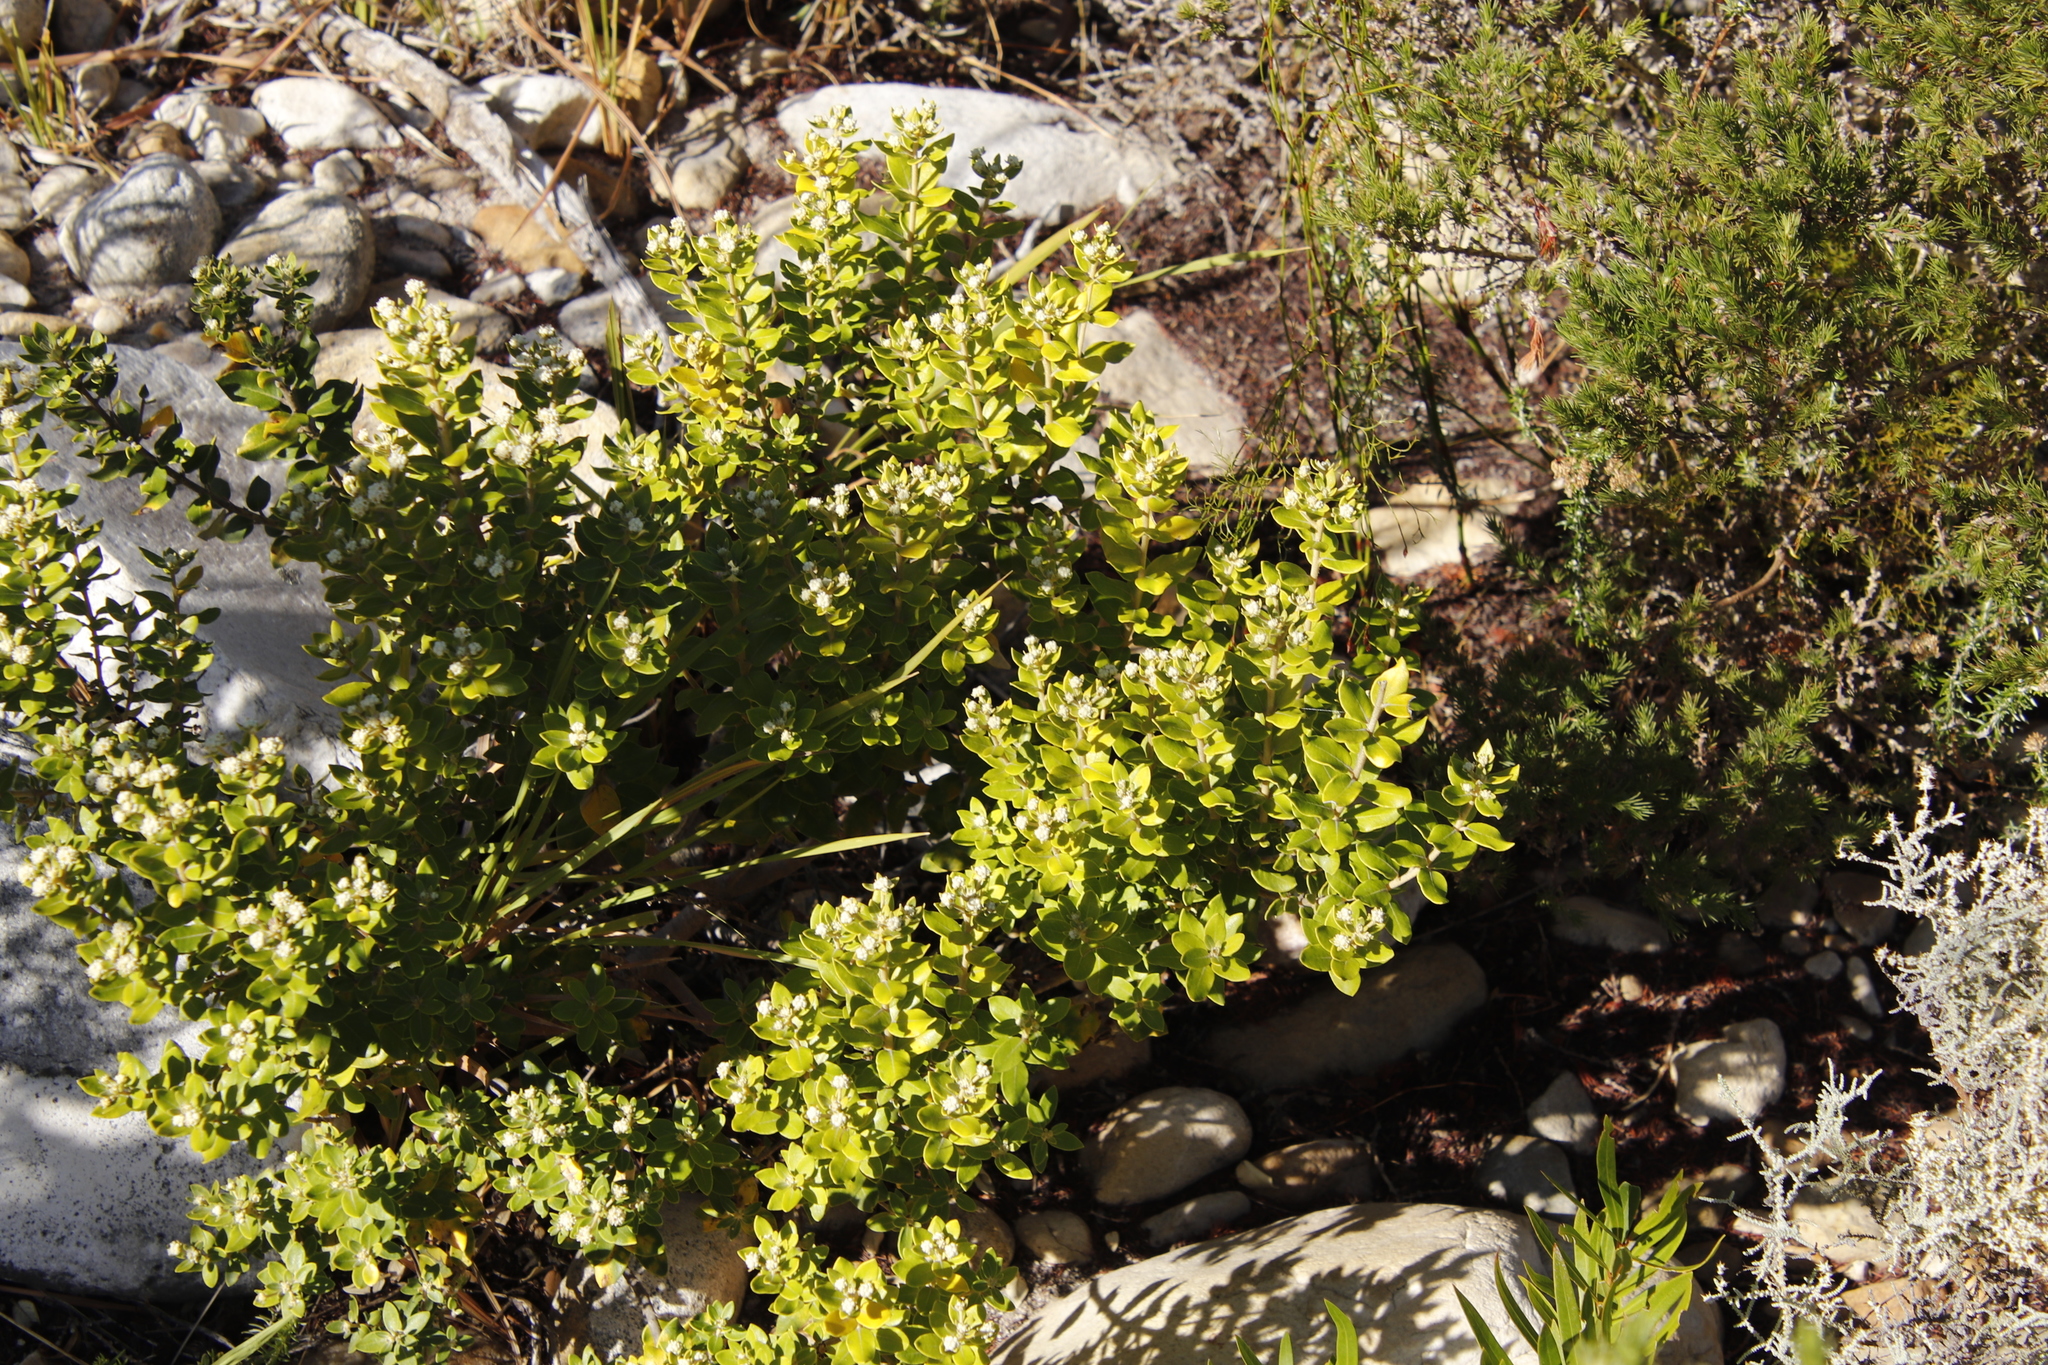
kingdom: Plantae
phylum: Tracheophyta
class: Magnoliopsida
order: Rosales
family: Rhamnaceae
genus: Phylica
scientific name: Phylica buxifolia
